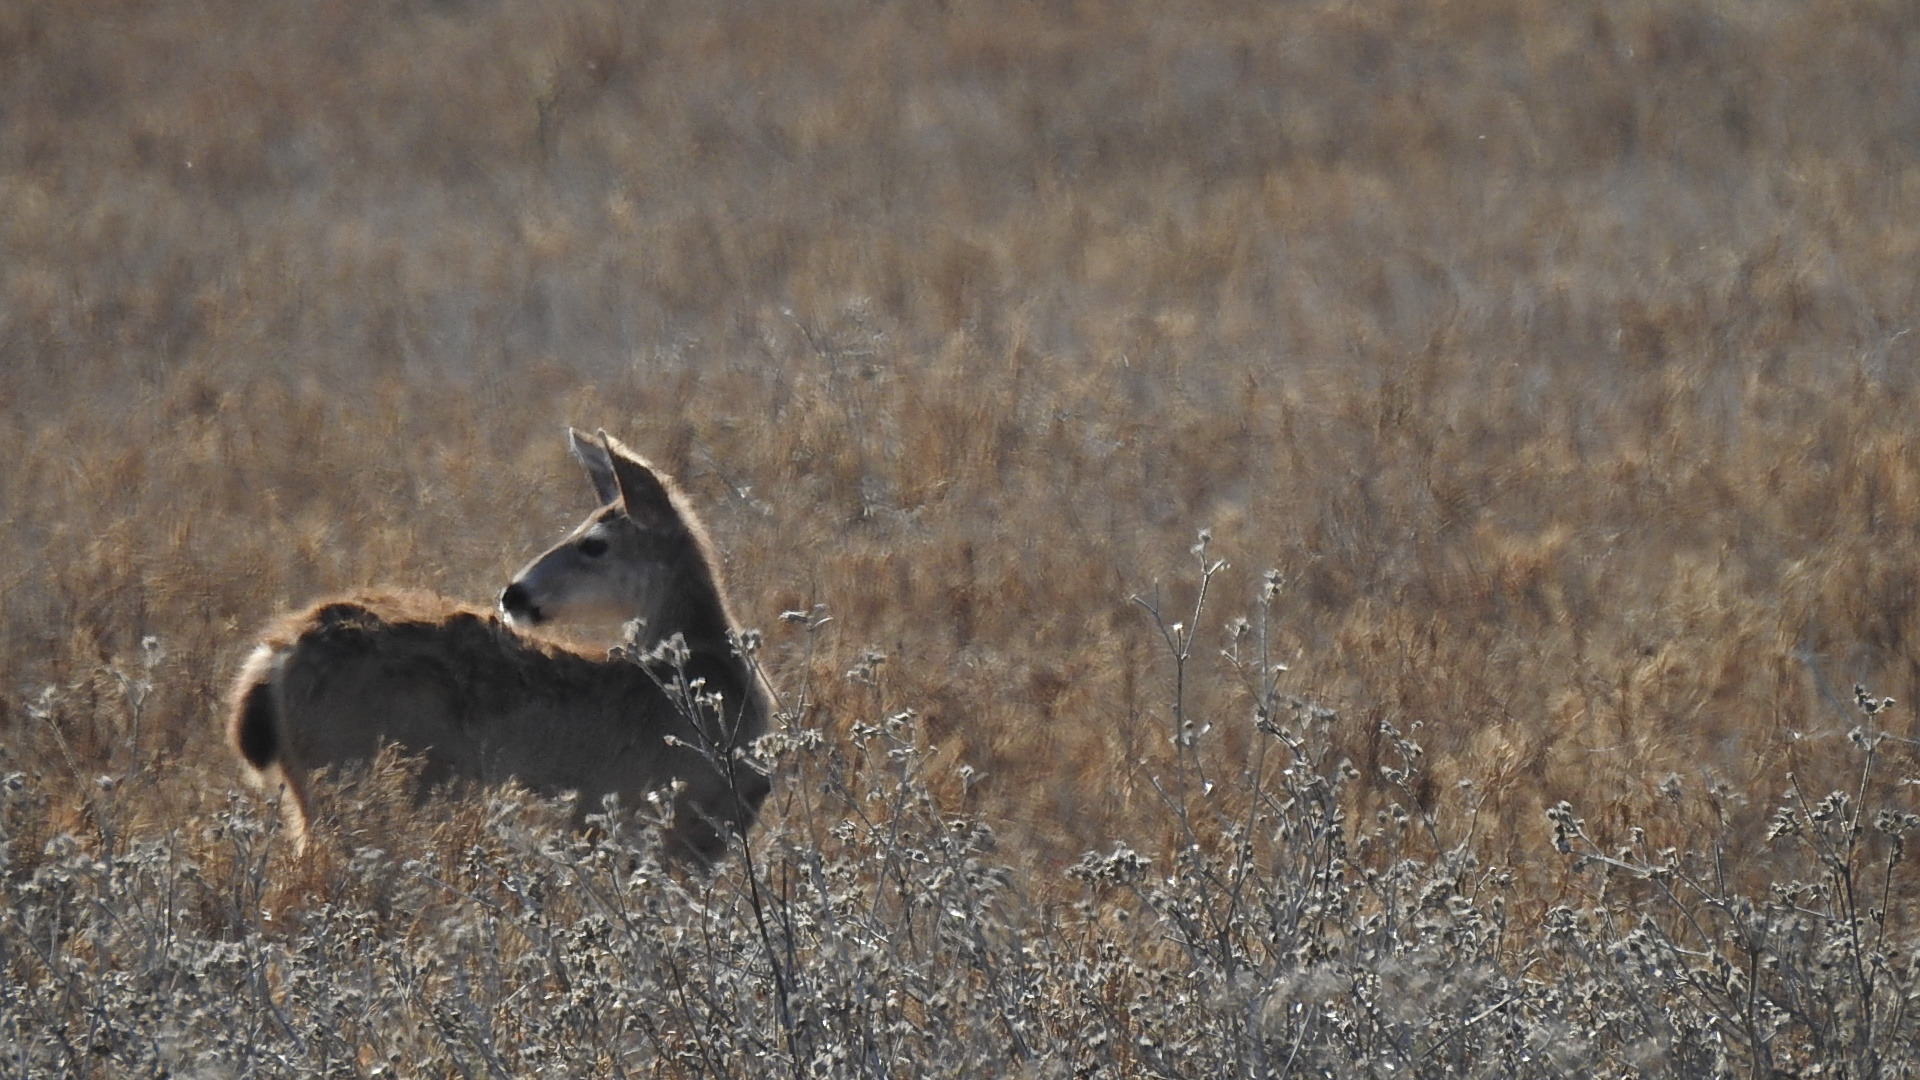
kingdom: Animalia
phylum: Chordata
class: Mammalia
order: Artiodactyla
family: Cervidae
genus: Odocoileus
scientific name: Odocoileus hemionus
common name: Mule deer
